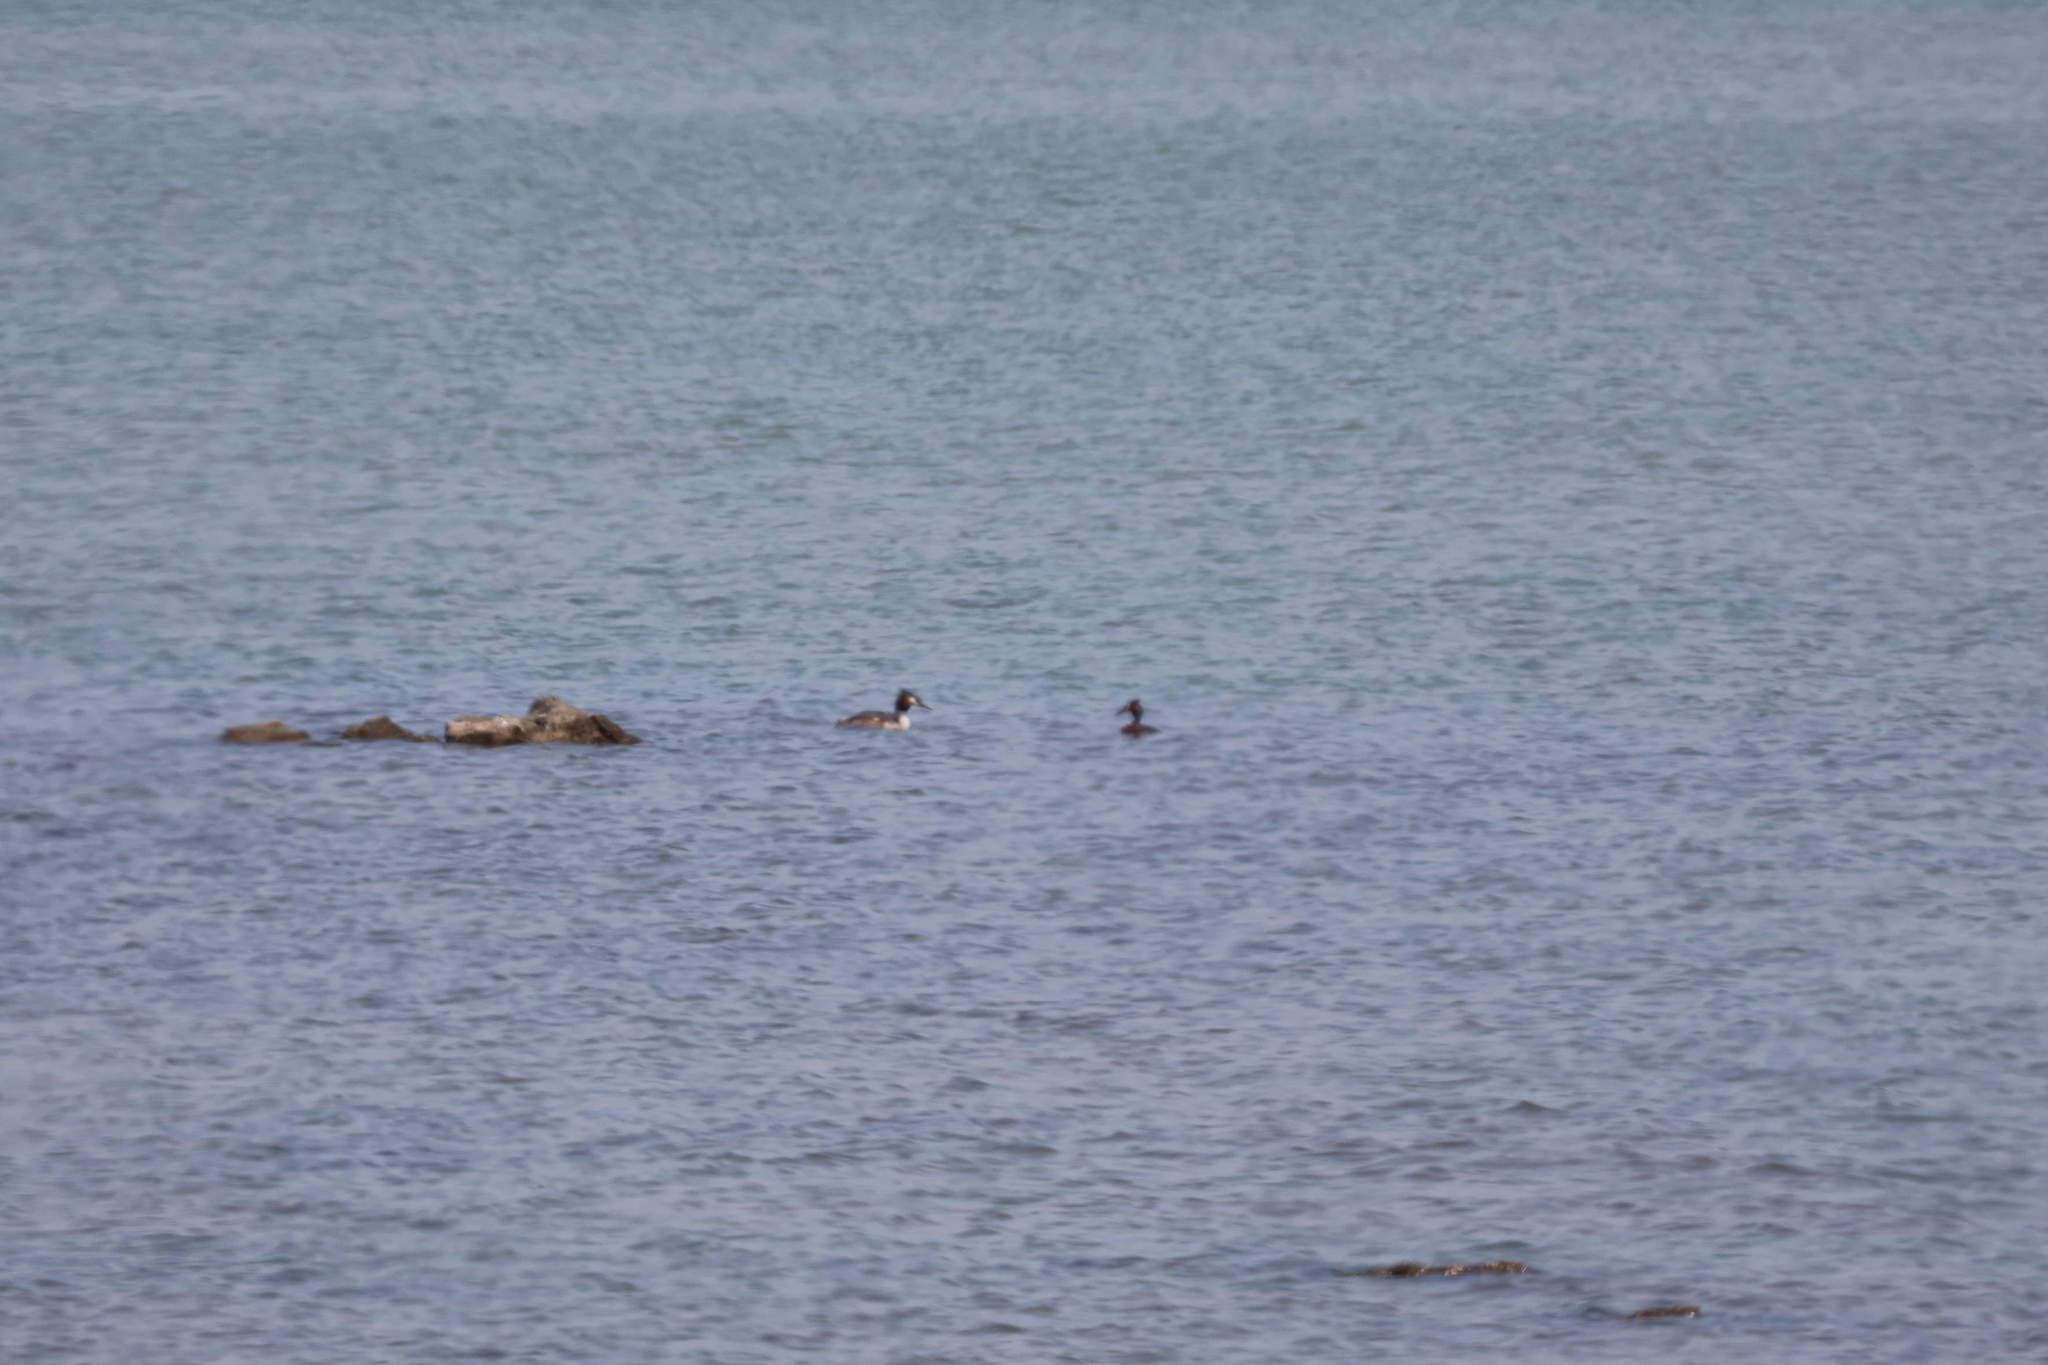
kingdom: Animalia
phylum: Chordata
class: Aves
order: Podicipediformes
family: Podicipedidae
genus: Podiceps
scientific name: Podiceps cristatus
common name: Great crested grebe
